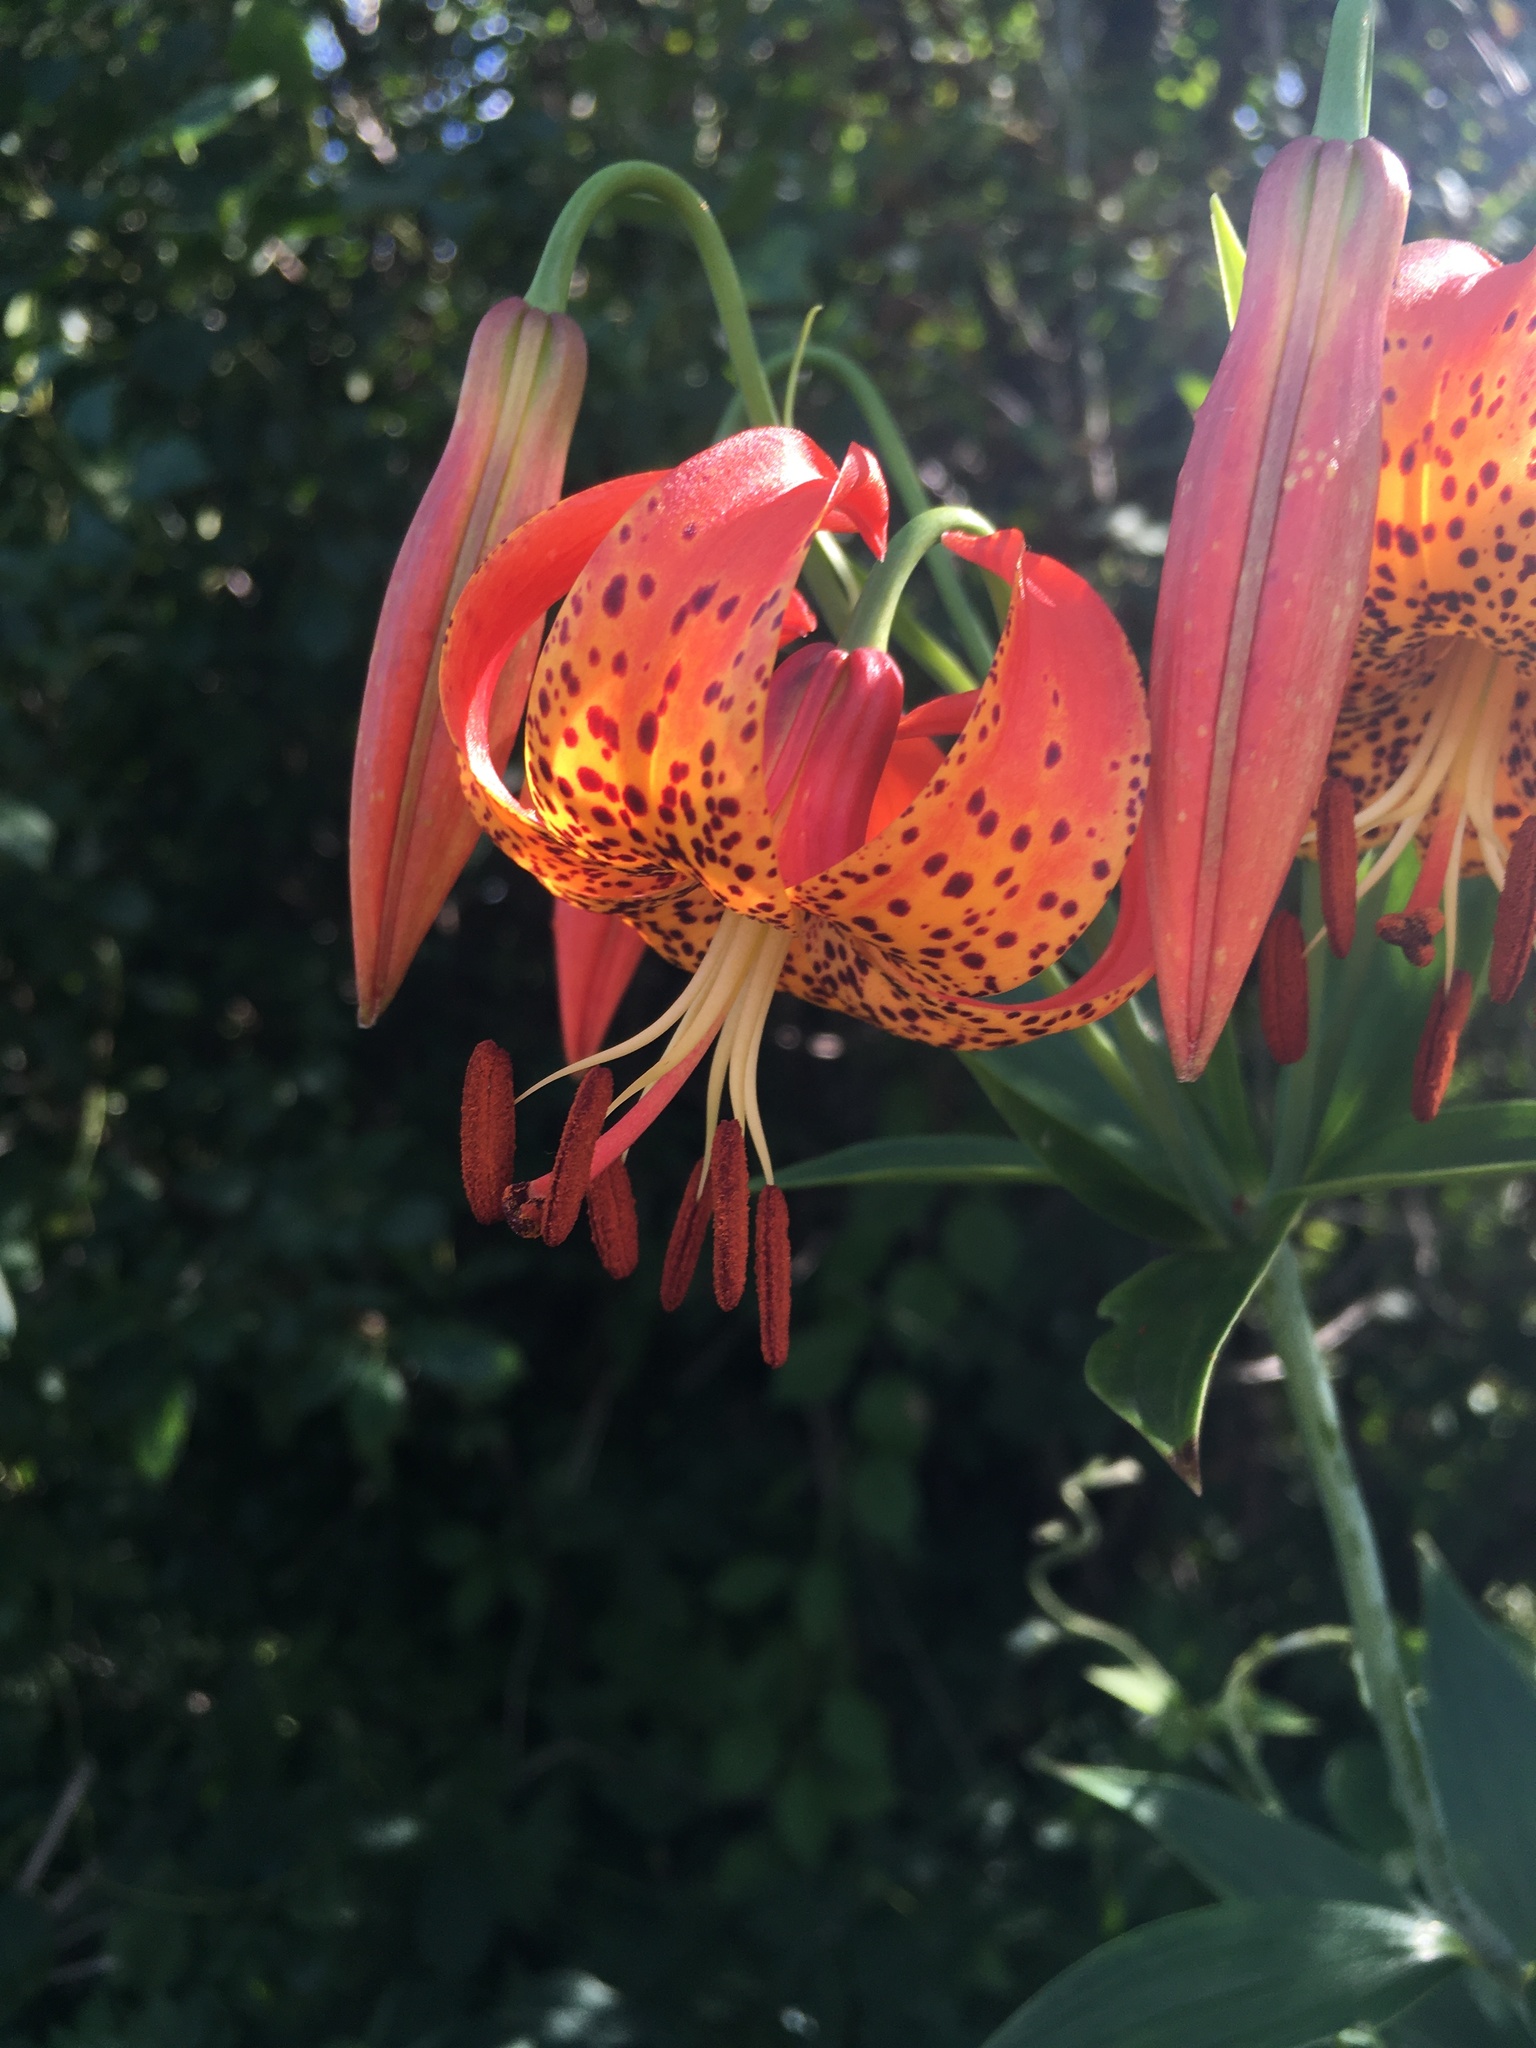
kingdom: Plantae
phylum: Tracheophyta
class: Liliopsida
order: Liliales
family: Liliaceae
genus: Lilium
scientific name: Lilium michiganense
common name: Michigan lily
